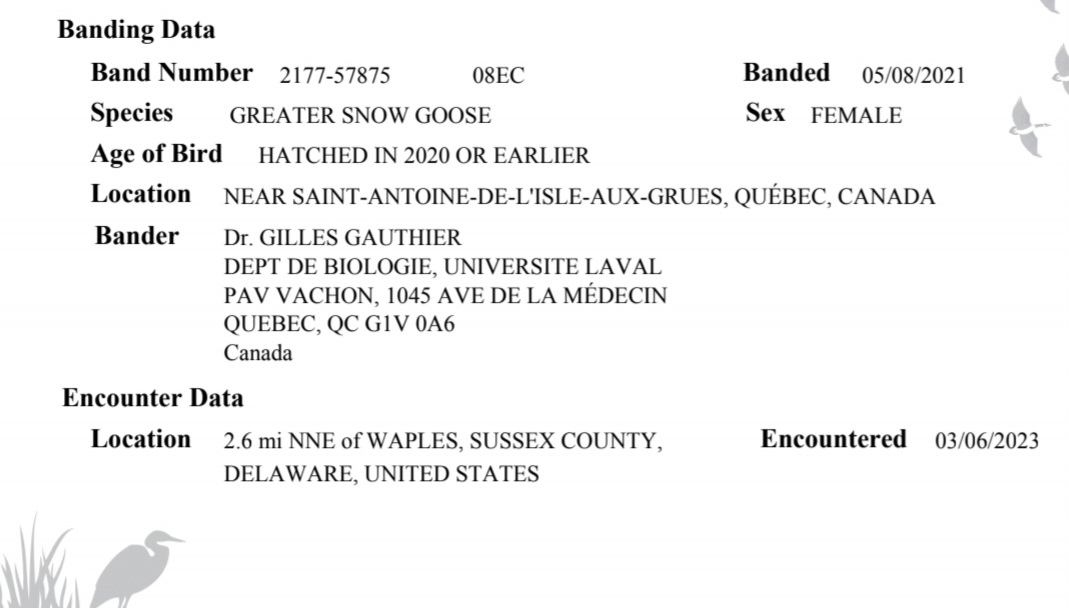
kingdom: Animalia
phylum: Chordata
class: Aves
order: Anseriformes
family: Anatidae
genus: Anser
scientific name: Anser caerulescens
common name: Snow goose
